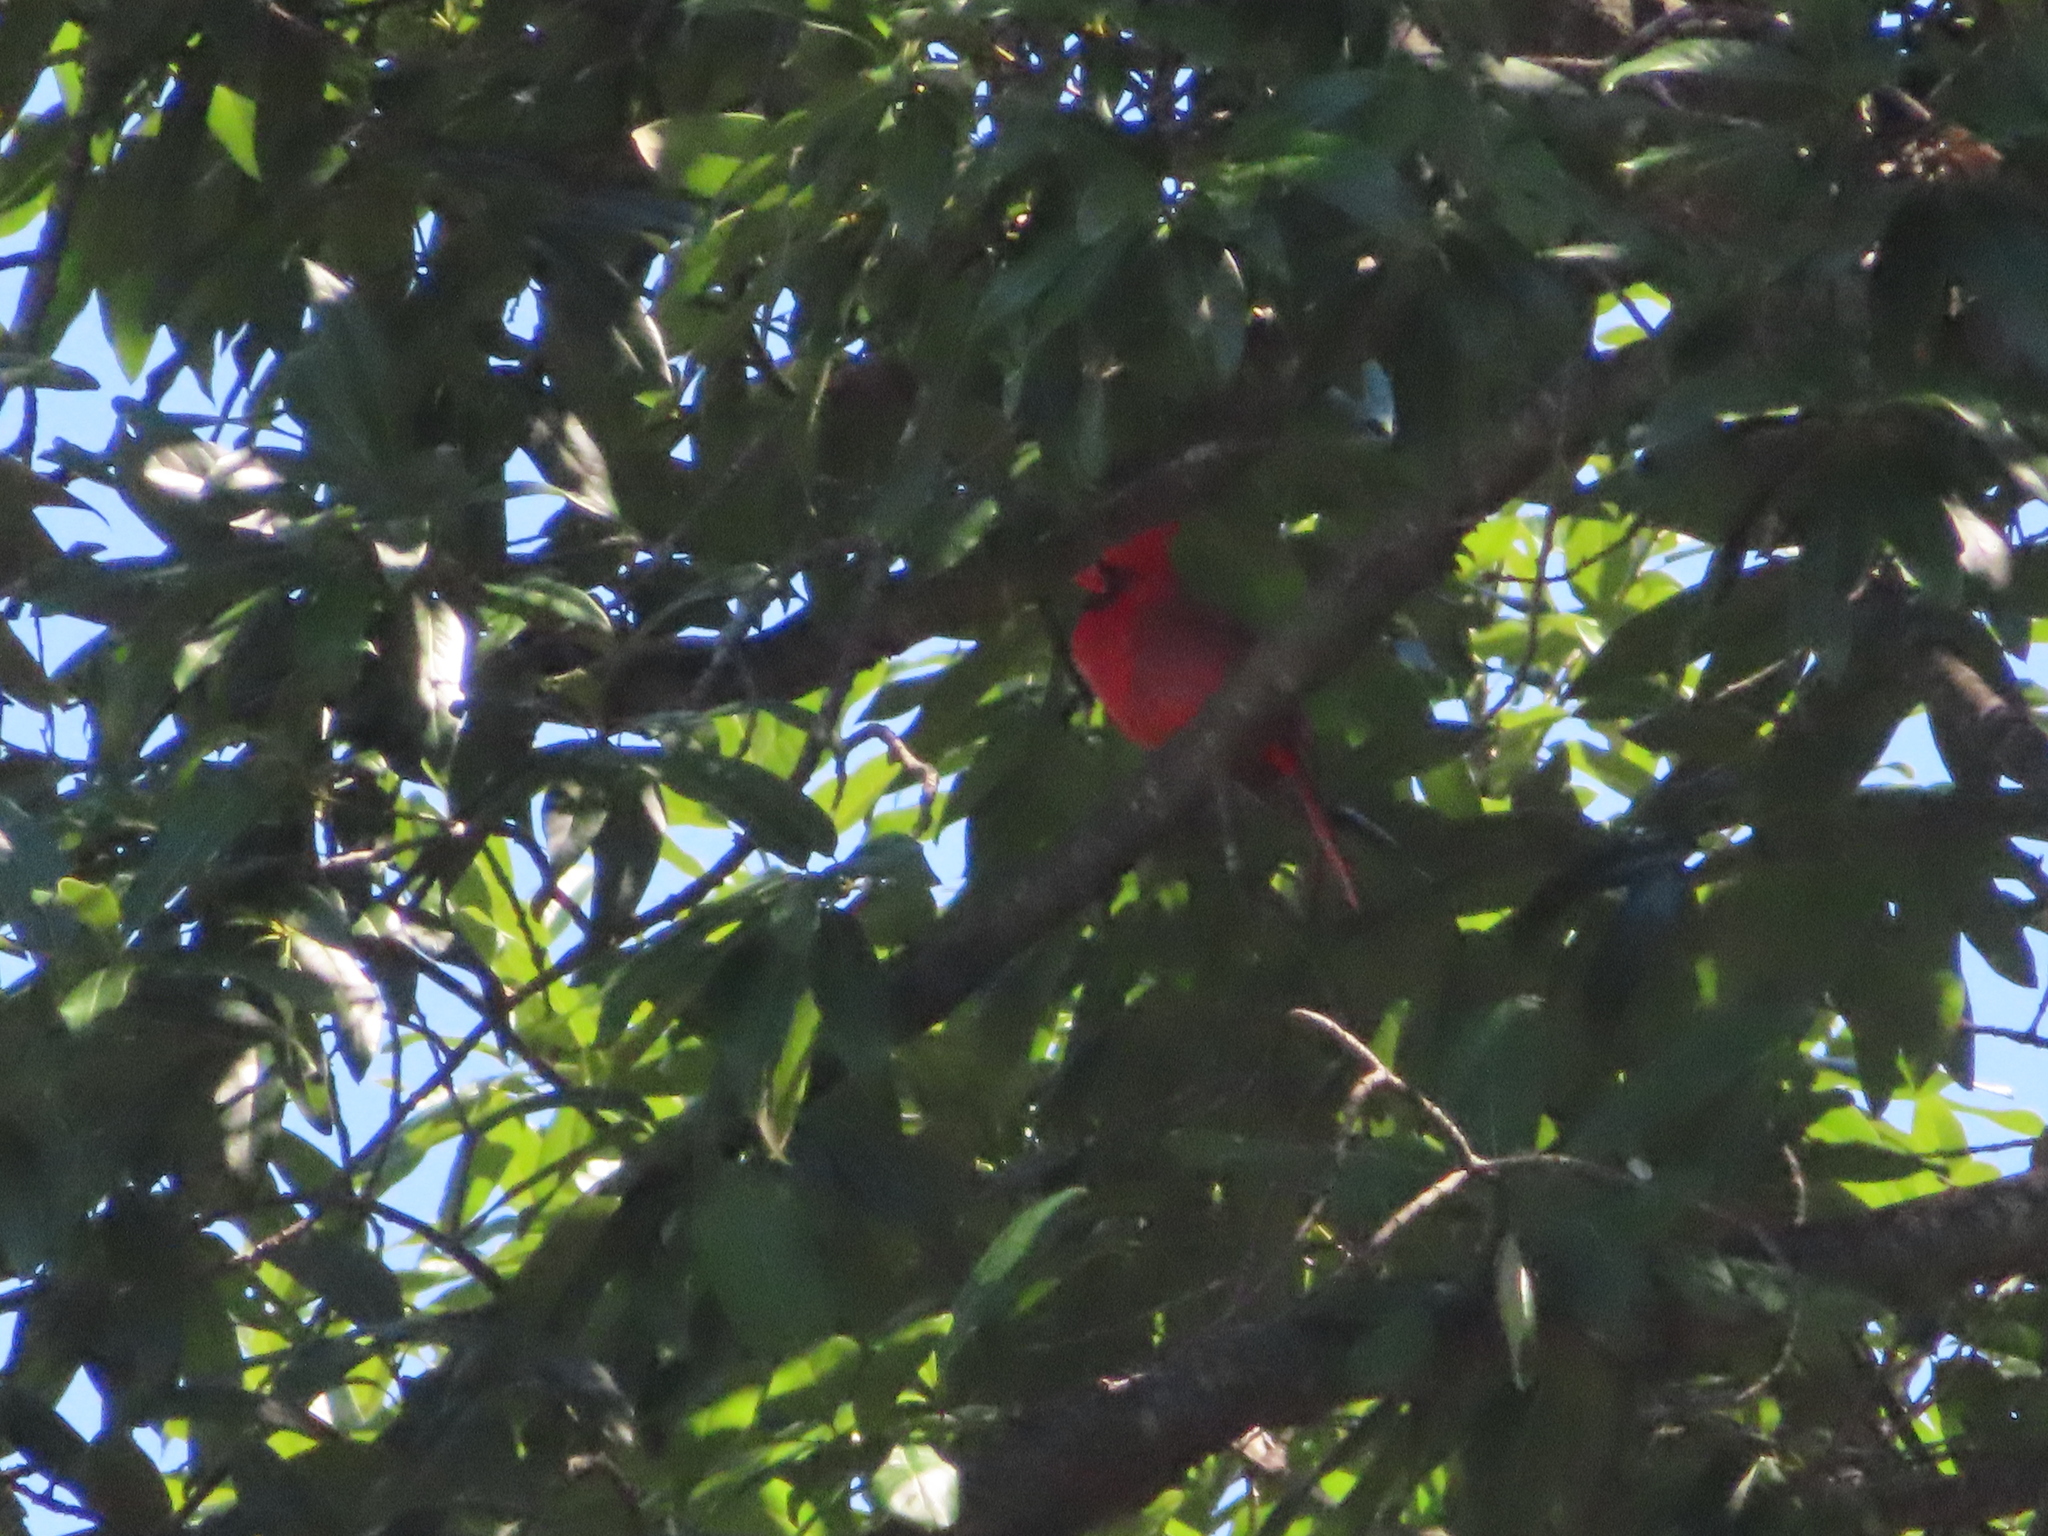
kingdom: Animalia
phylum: Chordata
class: Aves
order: Passeriformes
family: Cardinalidae
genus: Cardinalis
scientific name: Cardinalis cardinalis
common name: Northern cardinal
